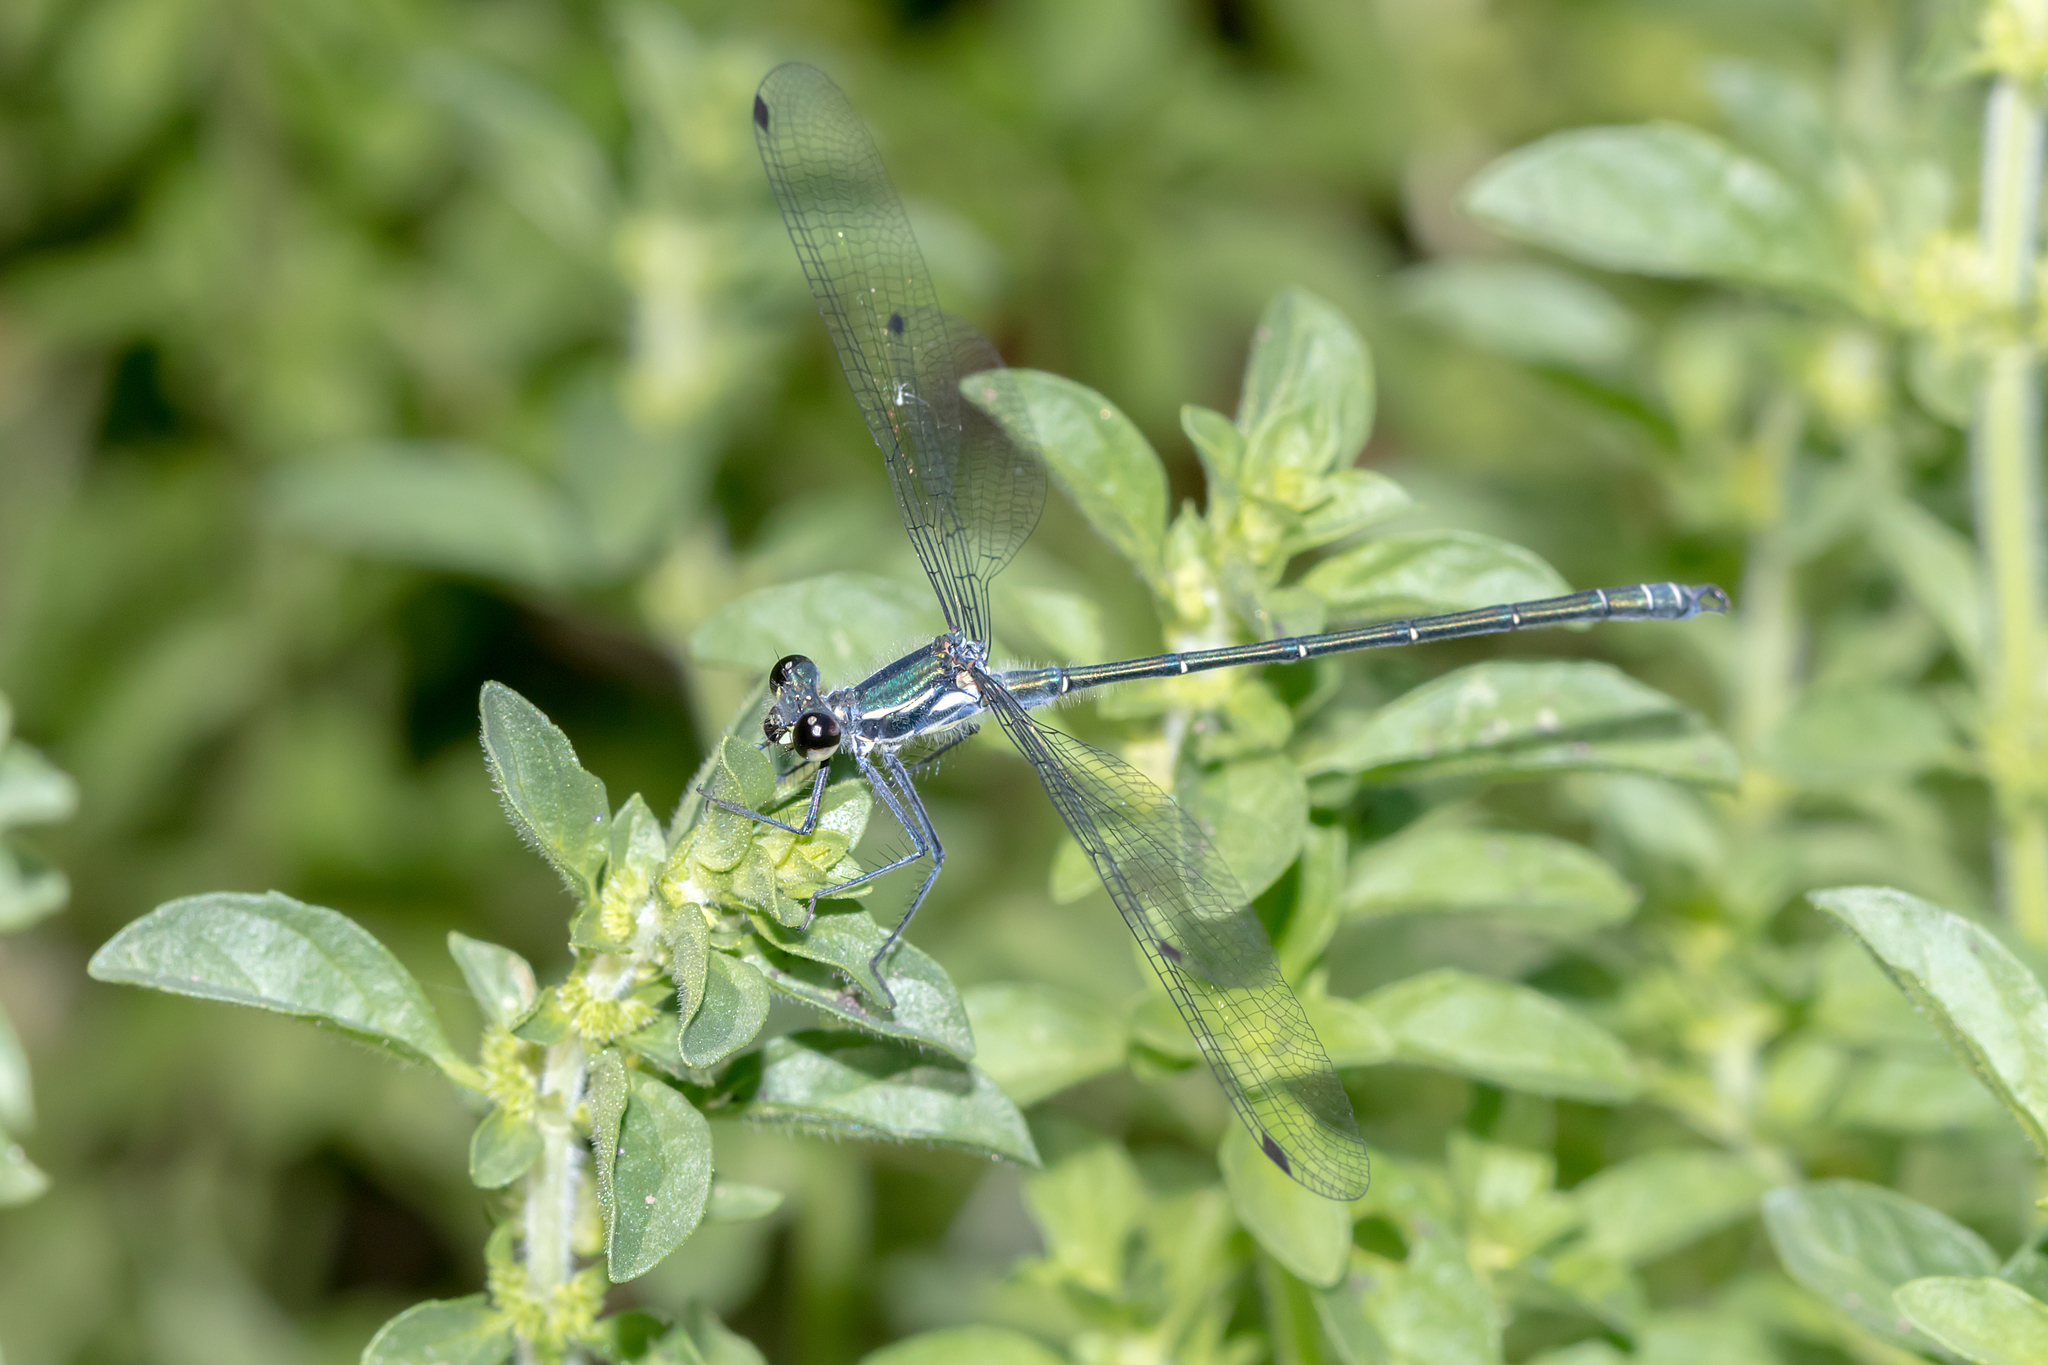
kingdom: Animalia
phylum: Arthropoda
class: Insecta
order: Odonata
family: Argiolestidae
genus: Austroargiolestes
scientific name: Austroargiolestes icteromelas
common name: Common flatwing
